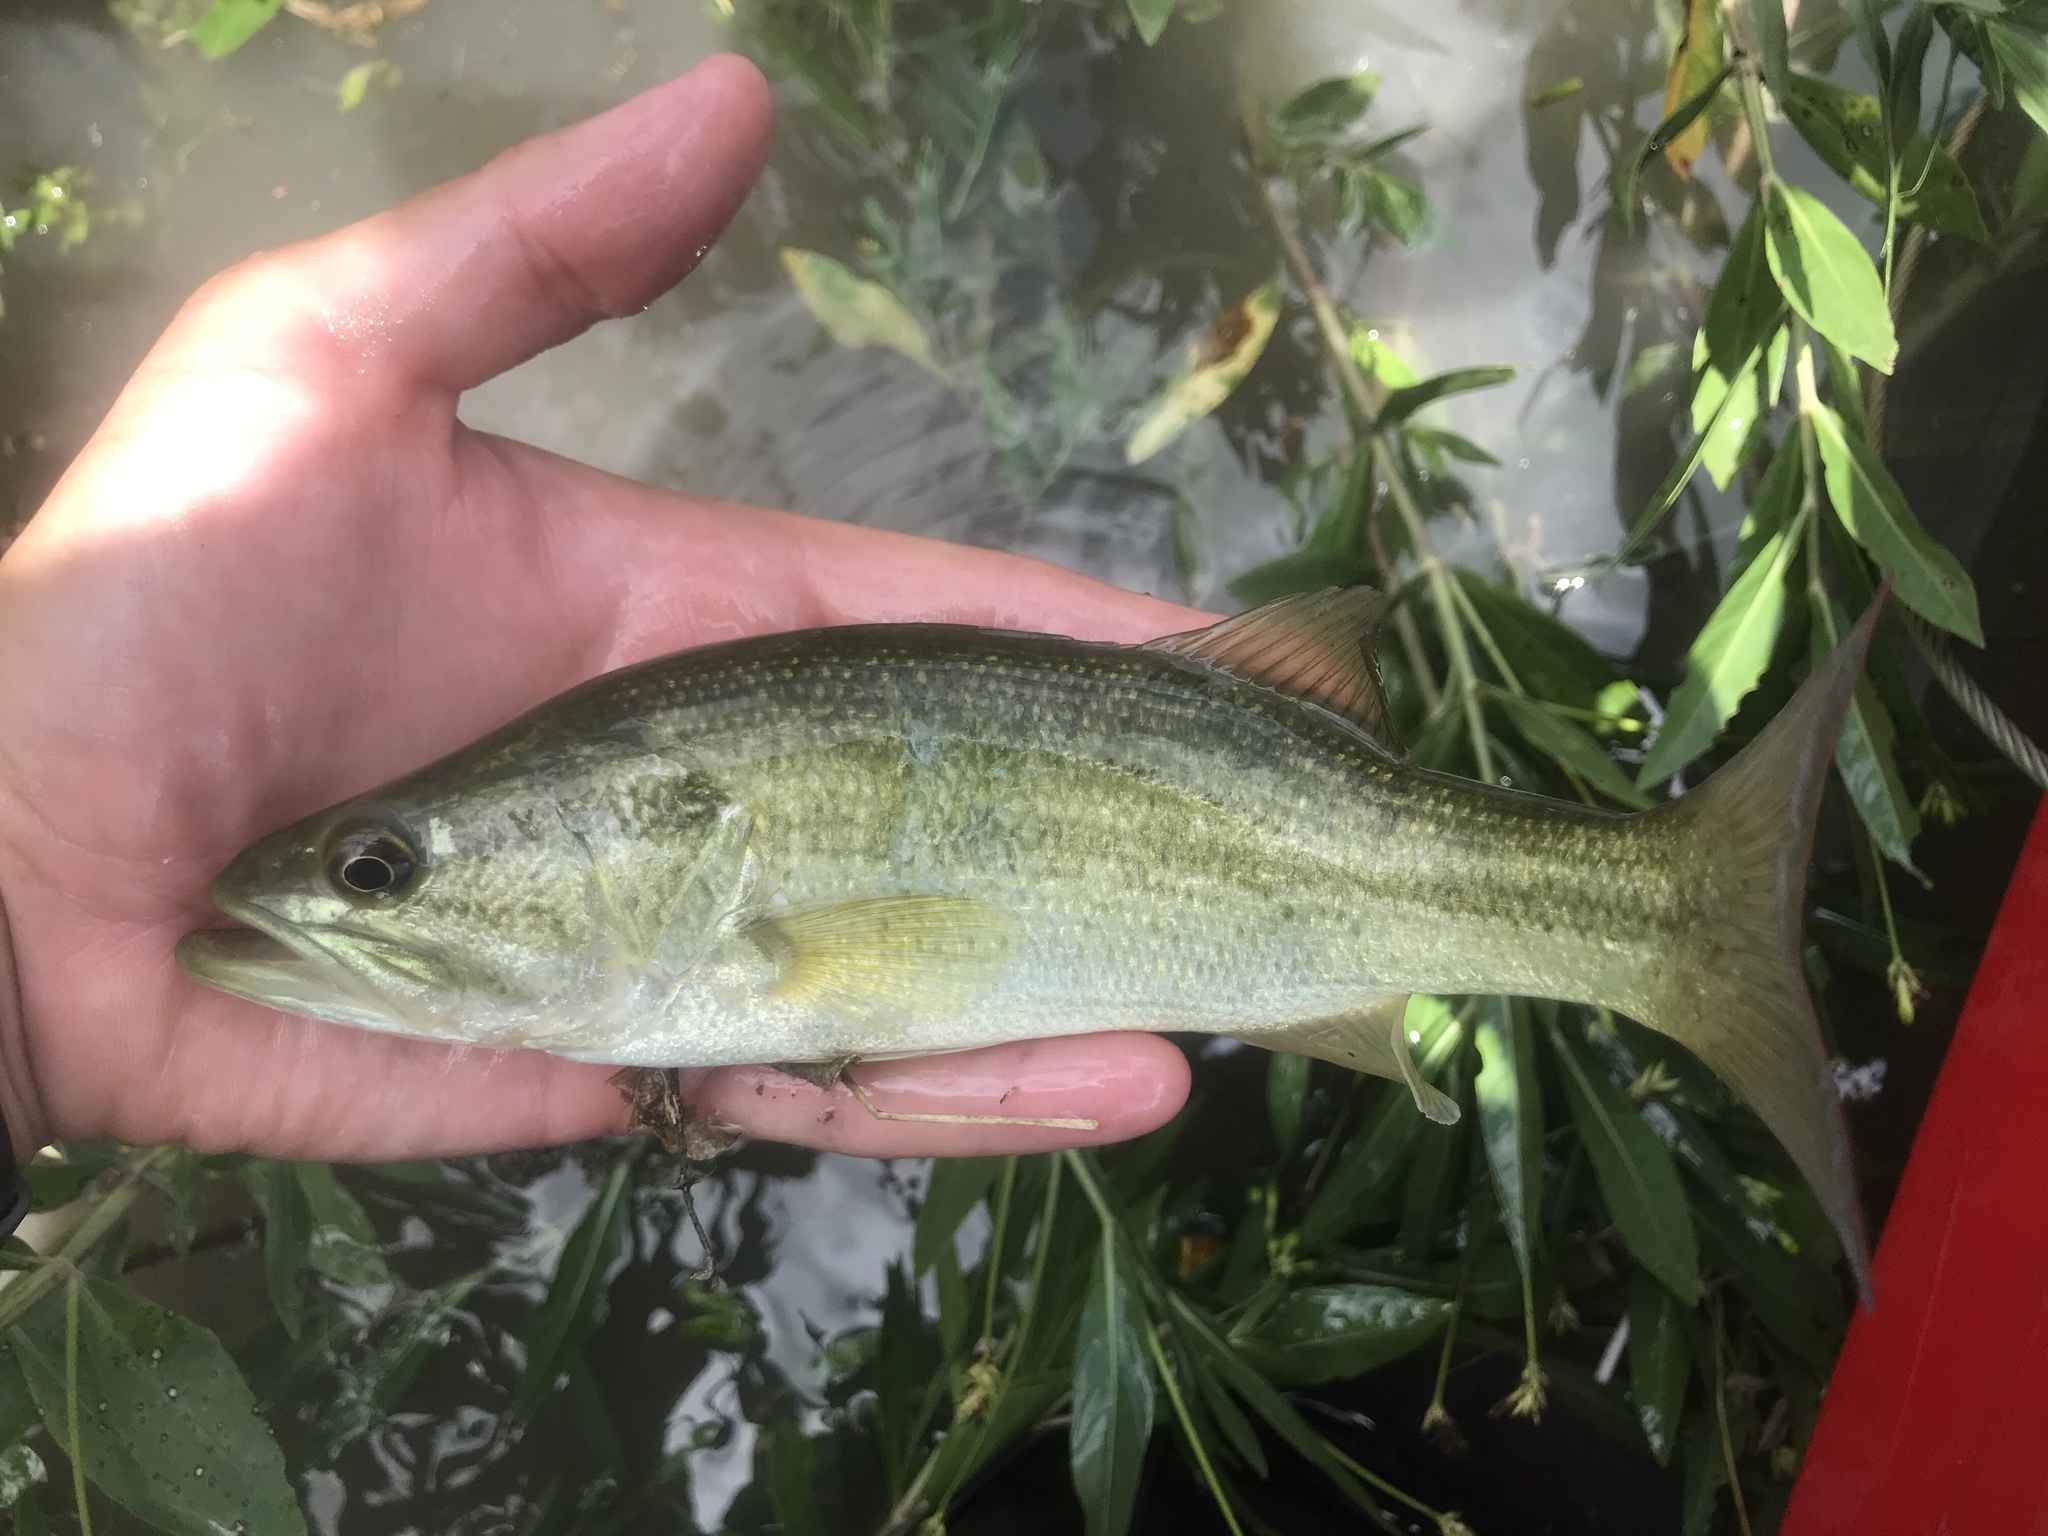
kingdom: Animalia
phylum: Chordata
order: Perciformes
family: Centrarchidae
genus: Micropterus
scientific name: Micropterus
